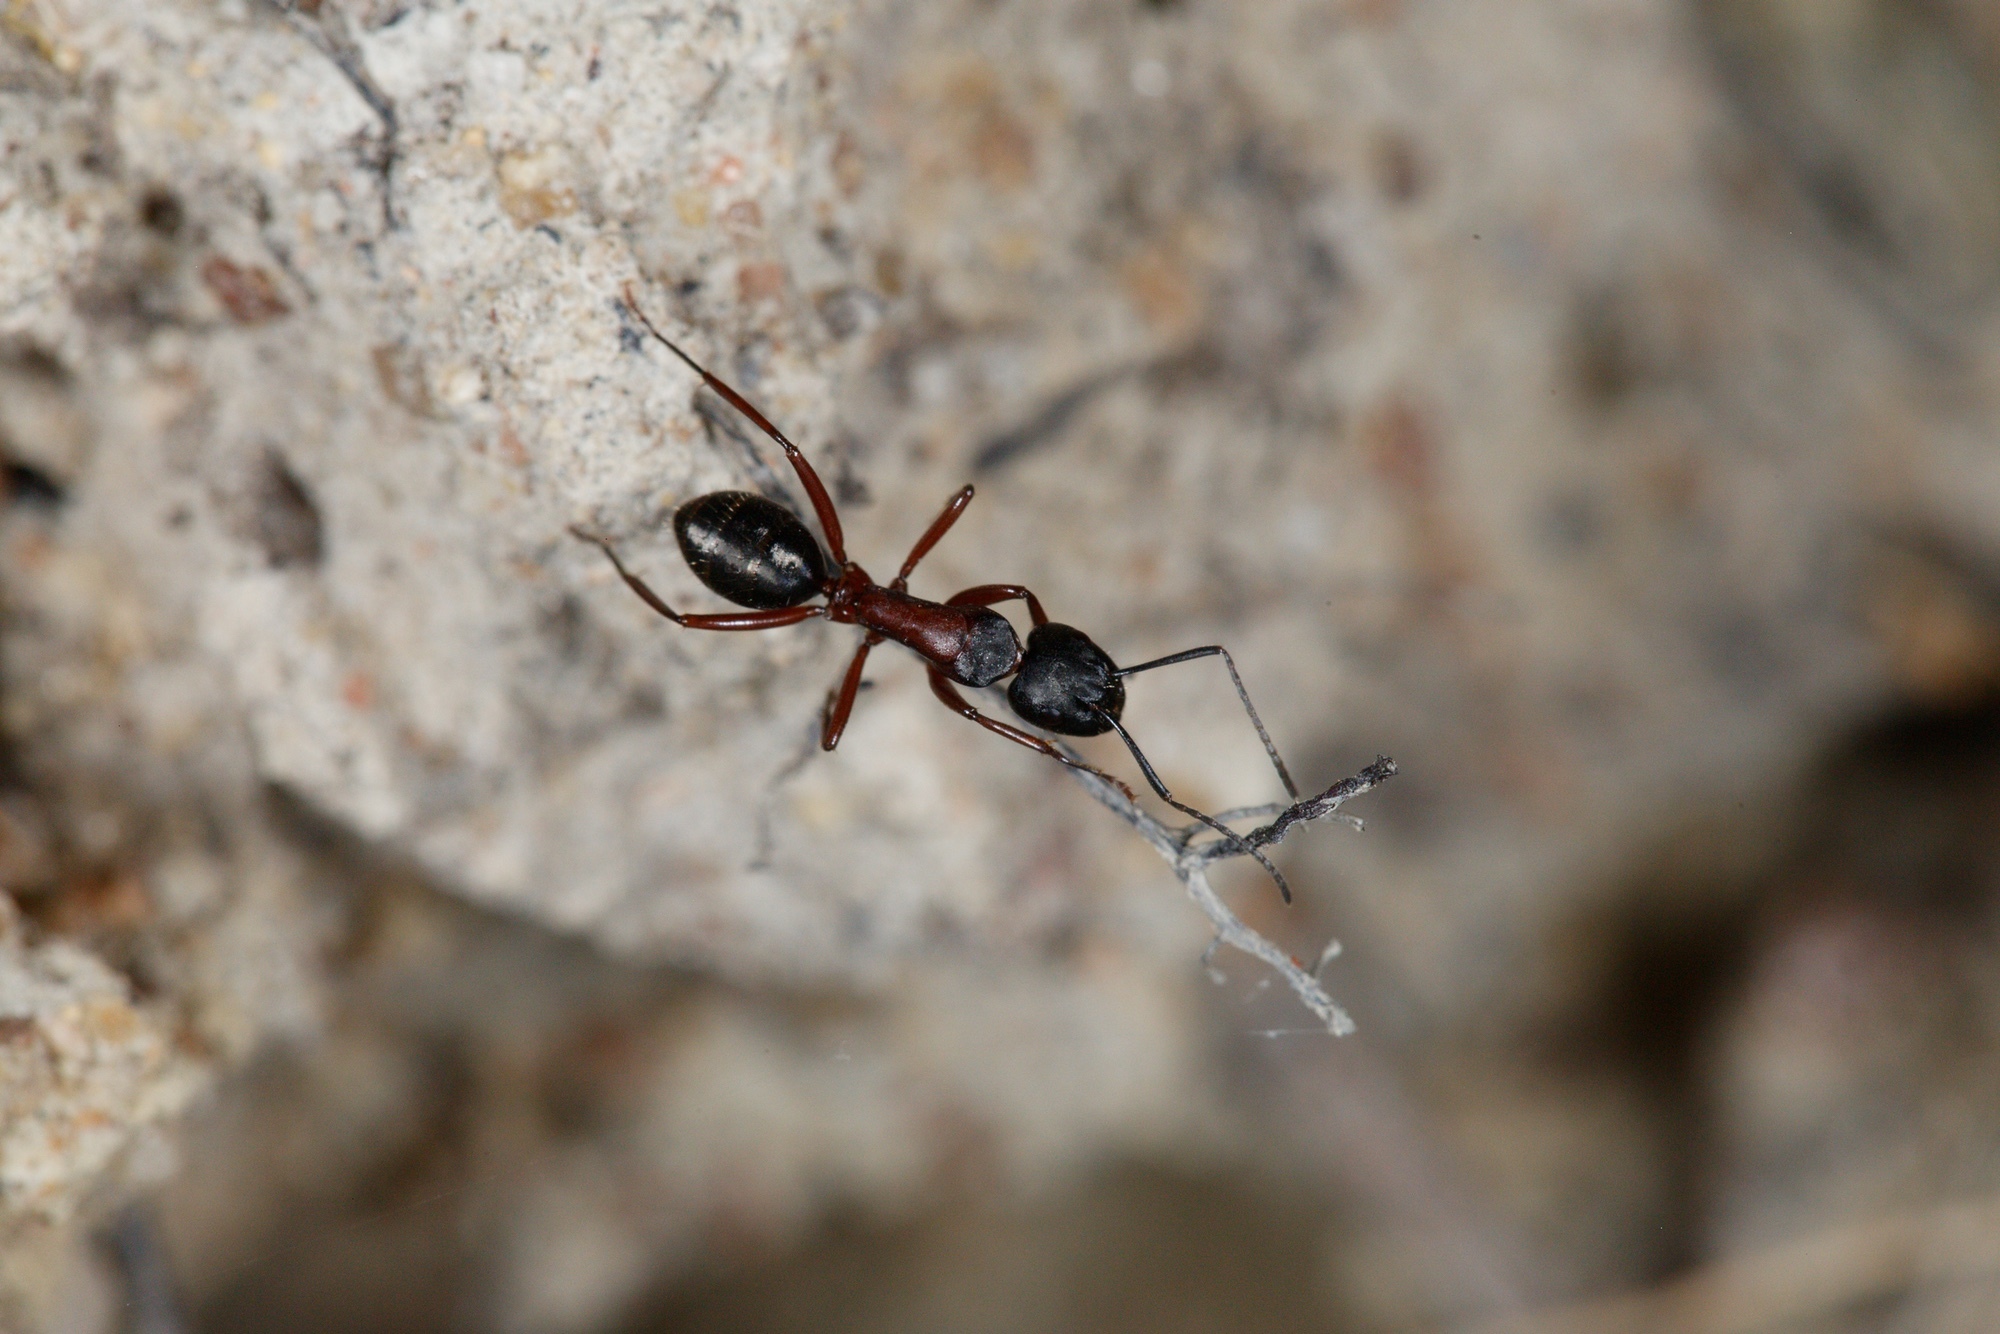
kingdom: Animalia
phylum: Arthropoda
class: Insecta
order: Hymenoptera
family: Formicidae
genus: Camponotus
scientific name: Camponotus innexus
